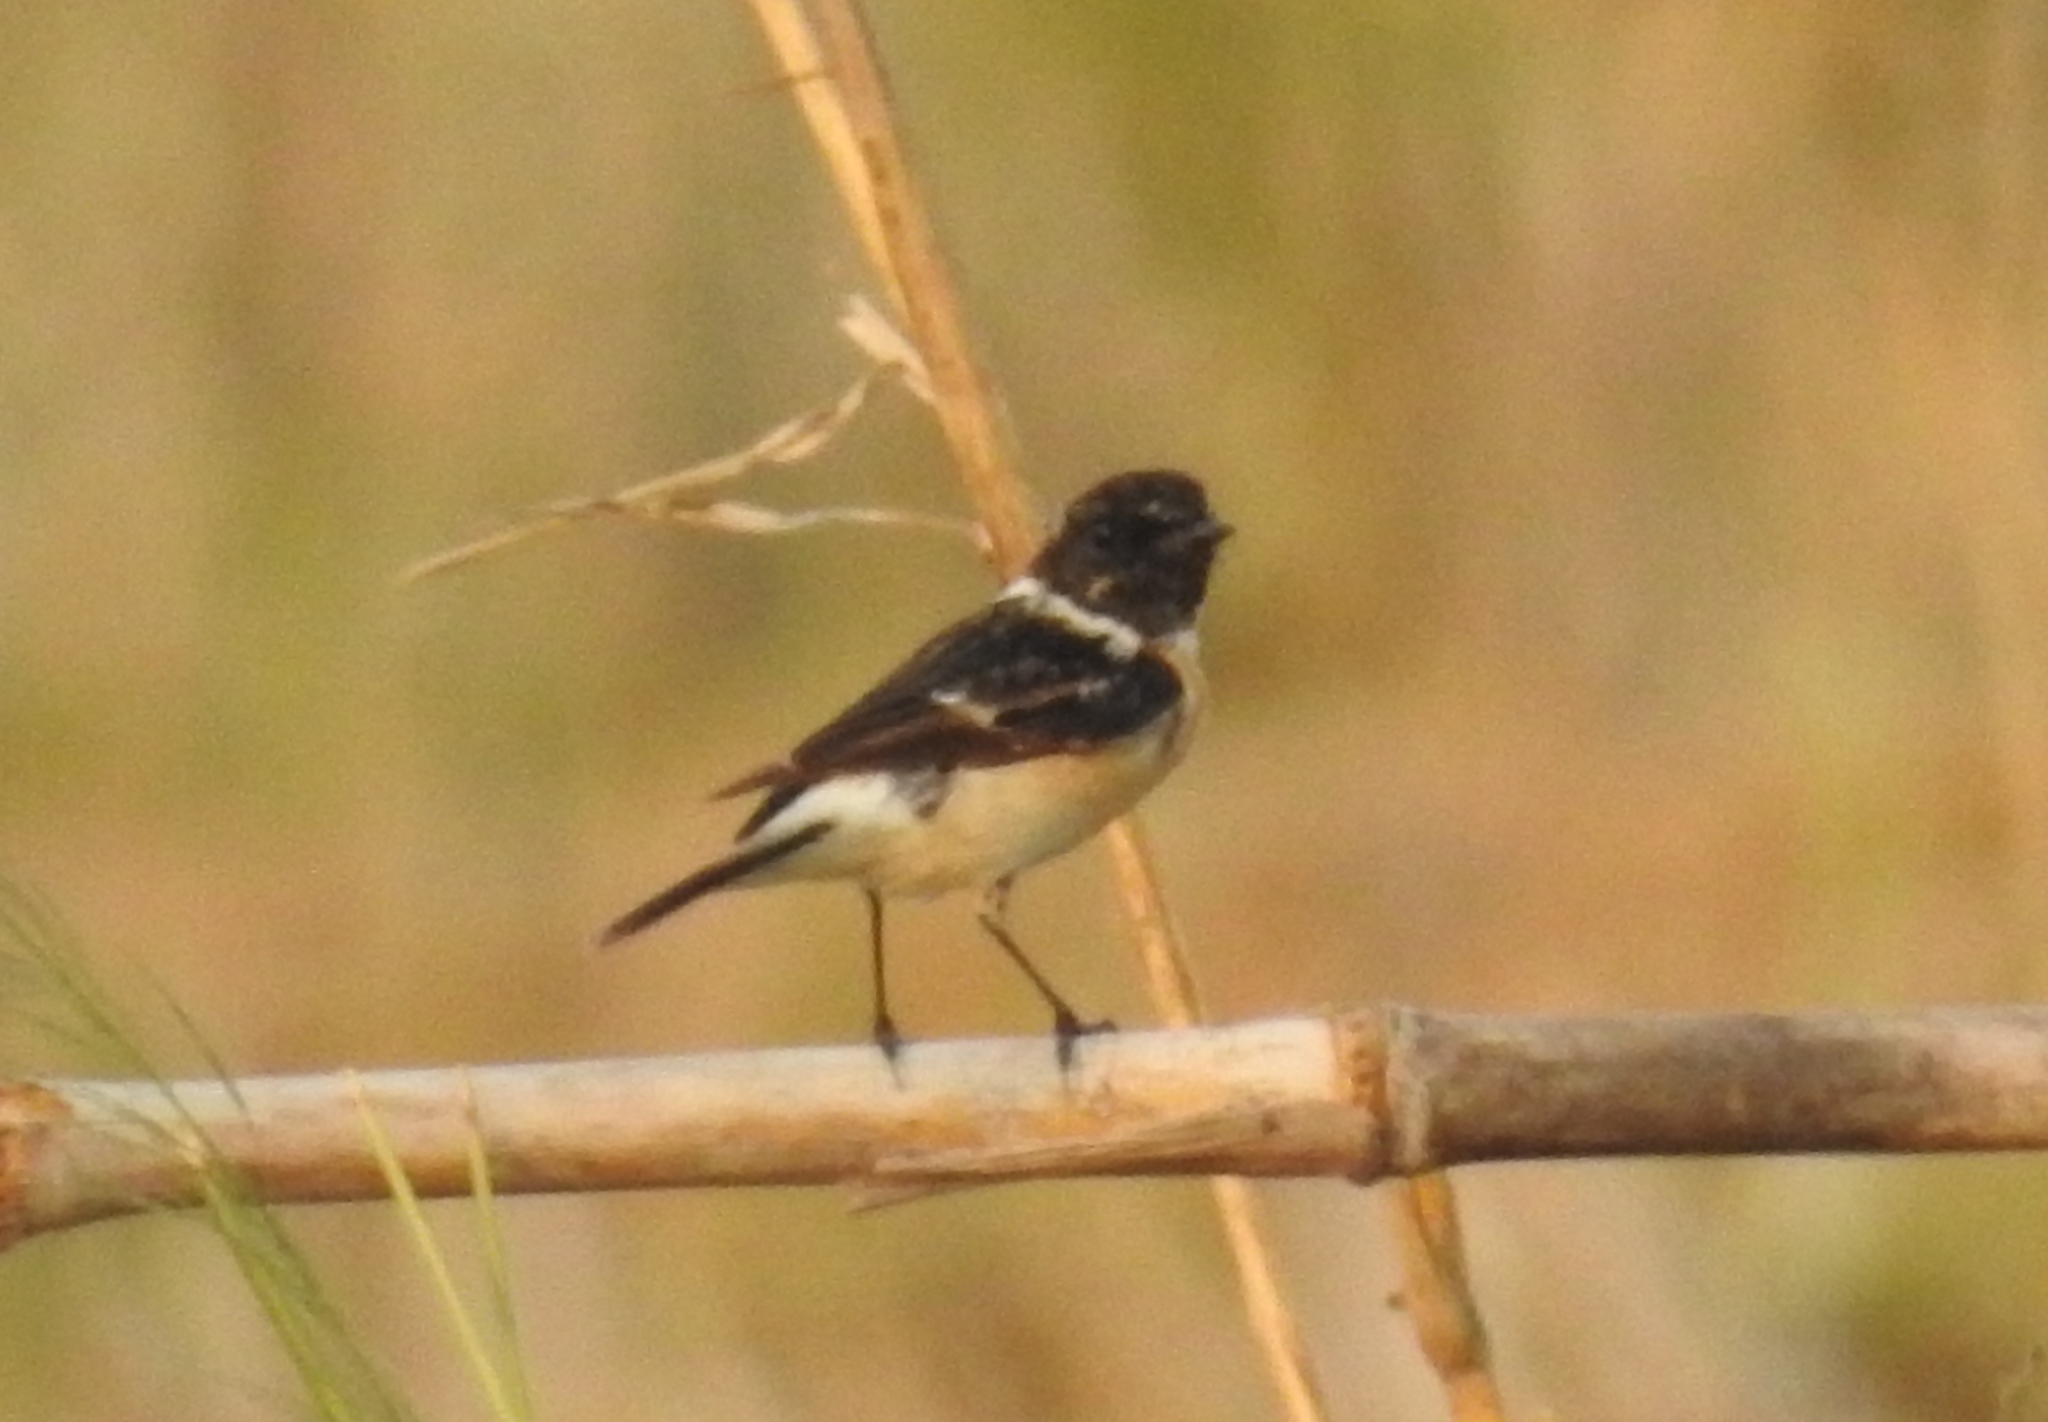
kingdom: Animalia
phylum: Chordata
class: Aves
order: Passeriformes
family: Muscicapidae
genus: Saxicola
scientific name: Saxicola maurus
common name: Siberian stonechat
